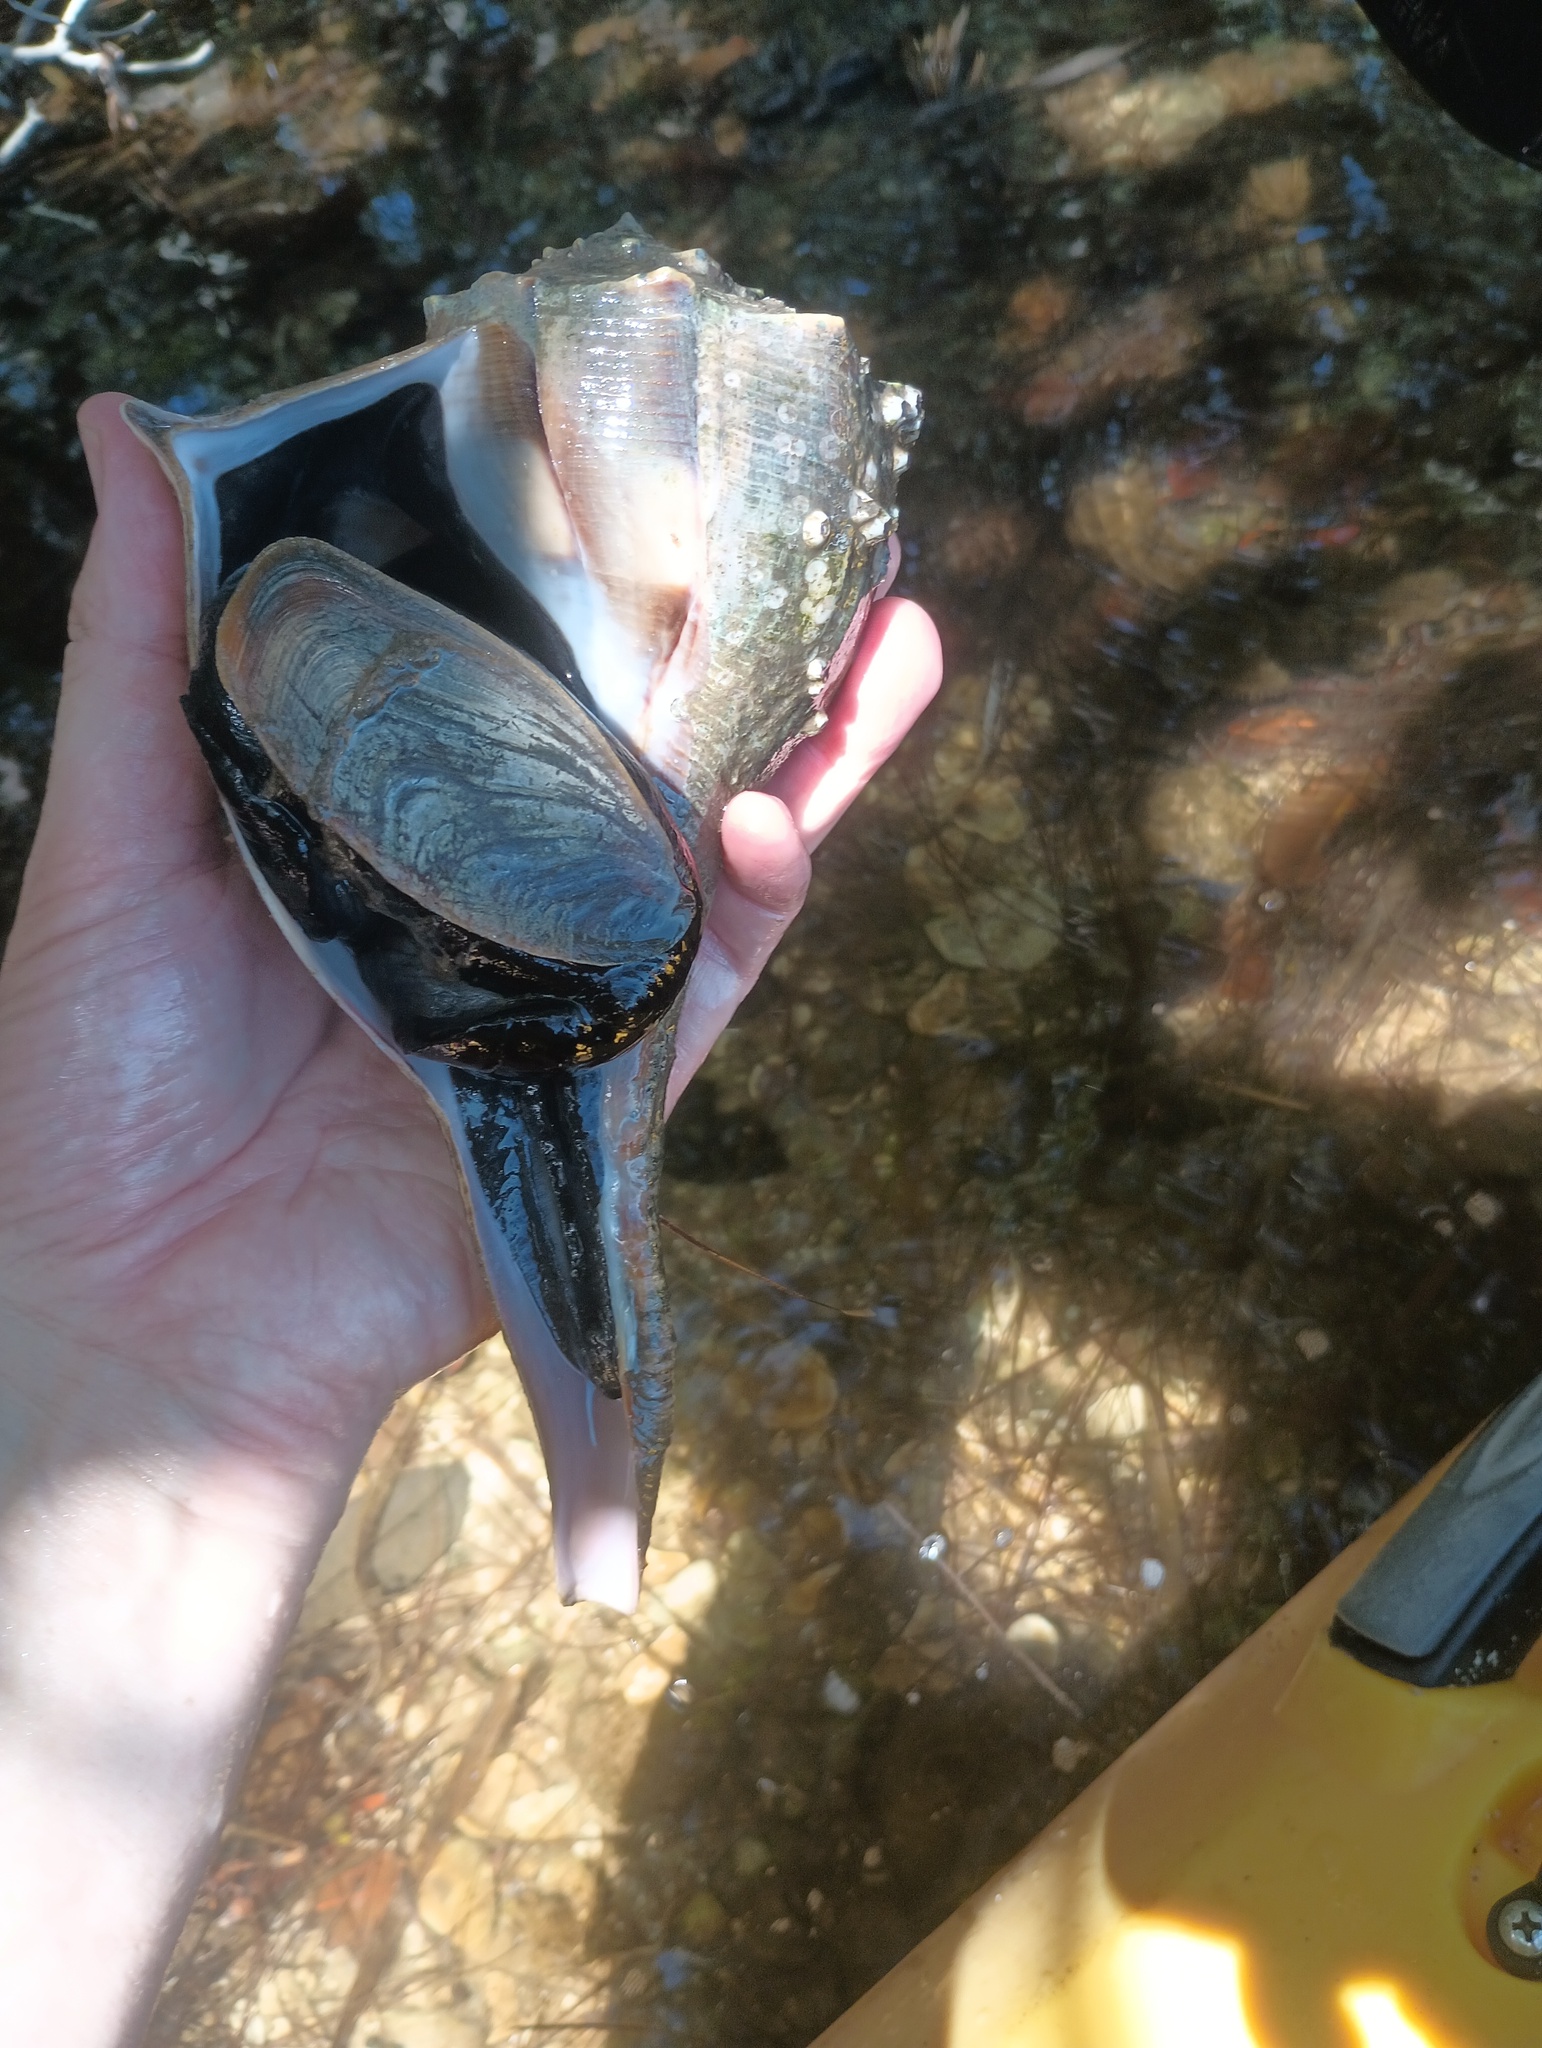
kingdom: Animalia
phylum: Mollusca
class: Gastropoda
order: Neogastropoda
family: Busyconidae
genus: Sinistrofulgur
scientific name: Sinistrofulgur sinistrum
